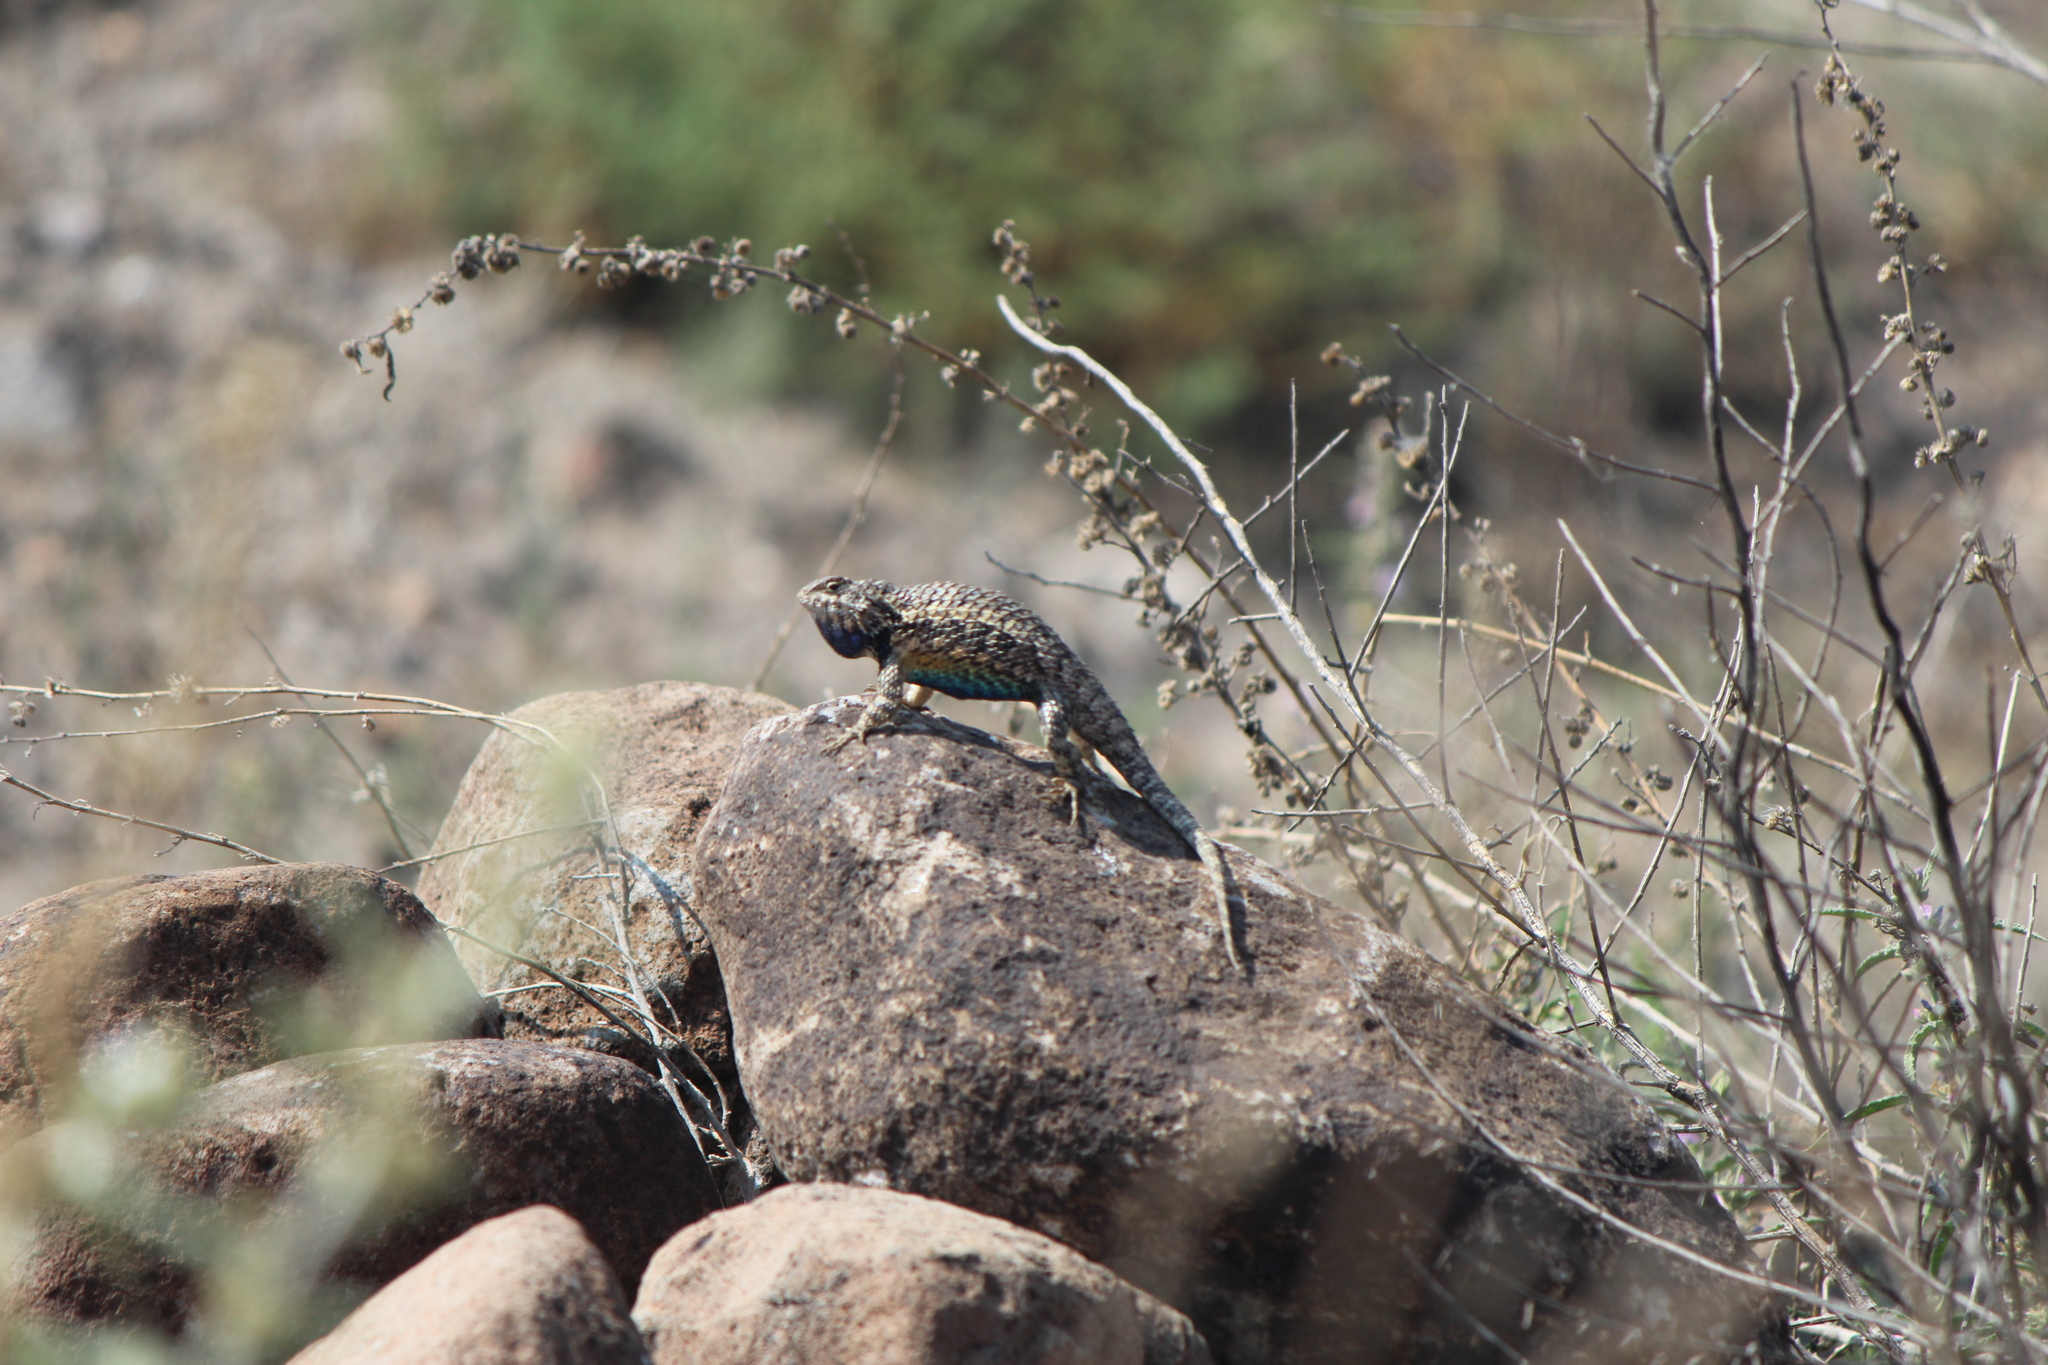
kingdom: Animalia
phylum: Chordata
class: Squamata
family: Phrynosomatidae
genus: Sceloporus
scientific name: Sceloporus spinosus
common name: Blue-spotted spiny lizard [caeruleopunctatus]
